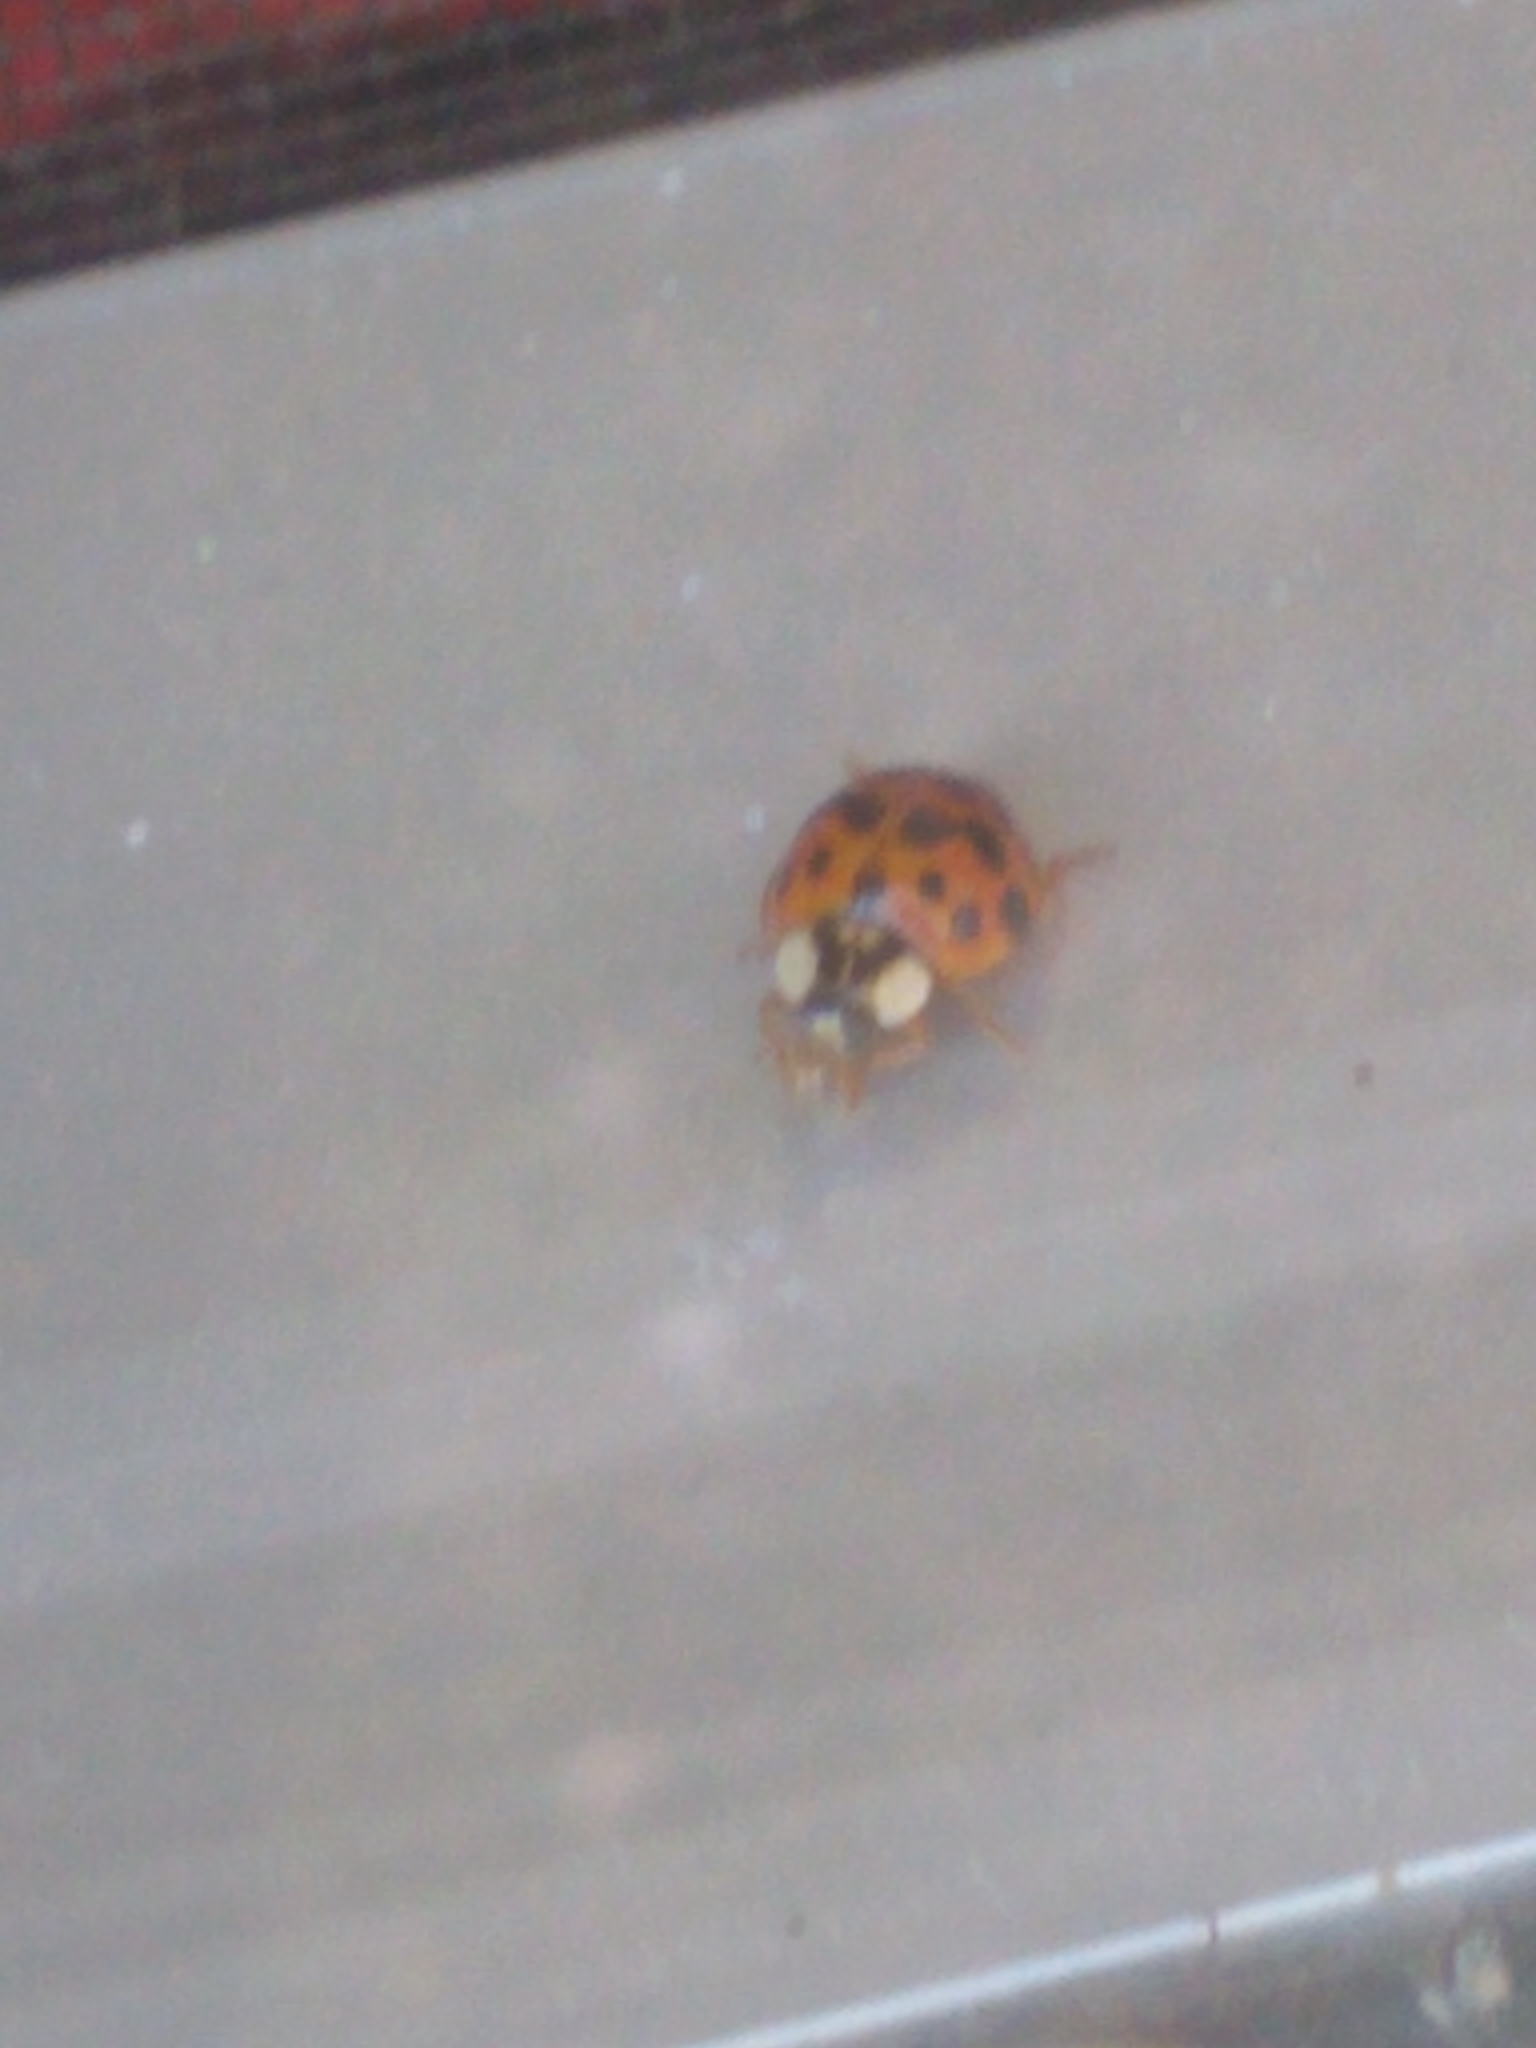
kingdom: Animalia
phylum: Arthropoda
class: Insecta
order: Coleoptera
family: Coccinellidae
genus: Harmonia
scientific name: Harmonia axyridis
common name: Harlequin ladybird
